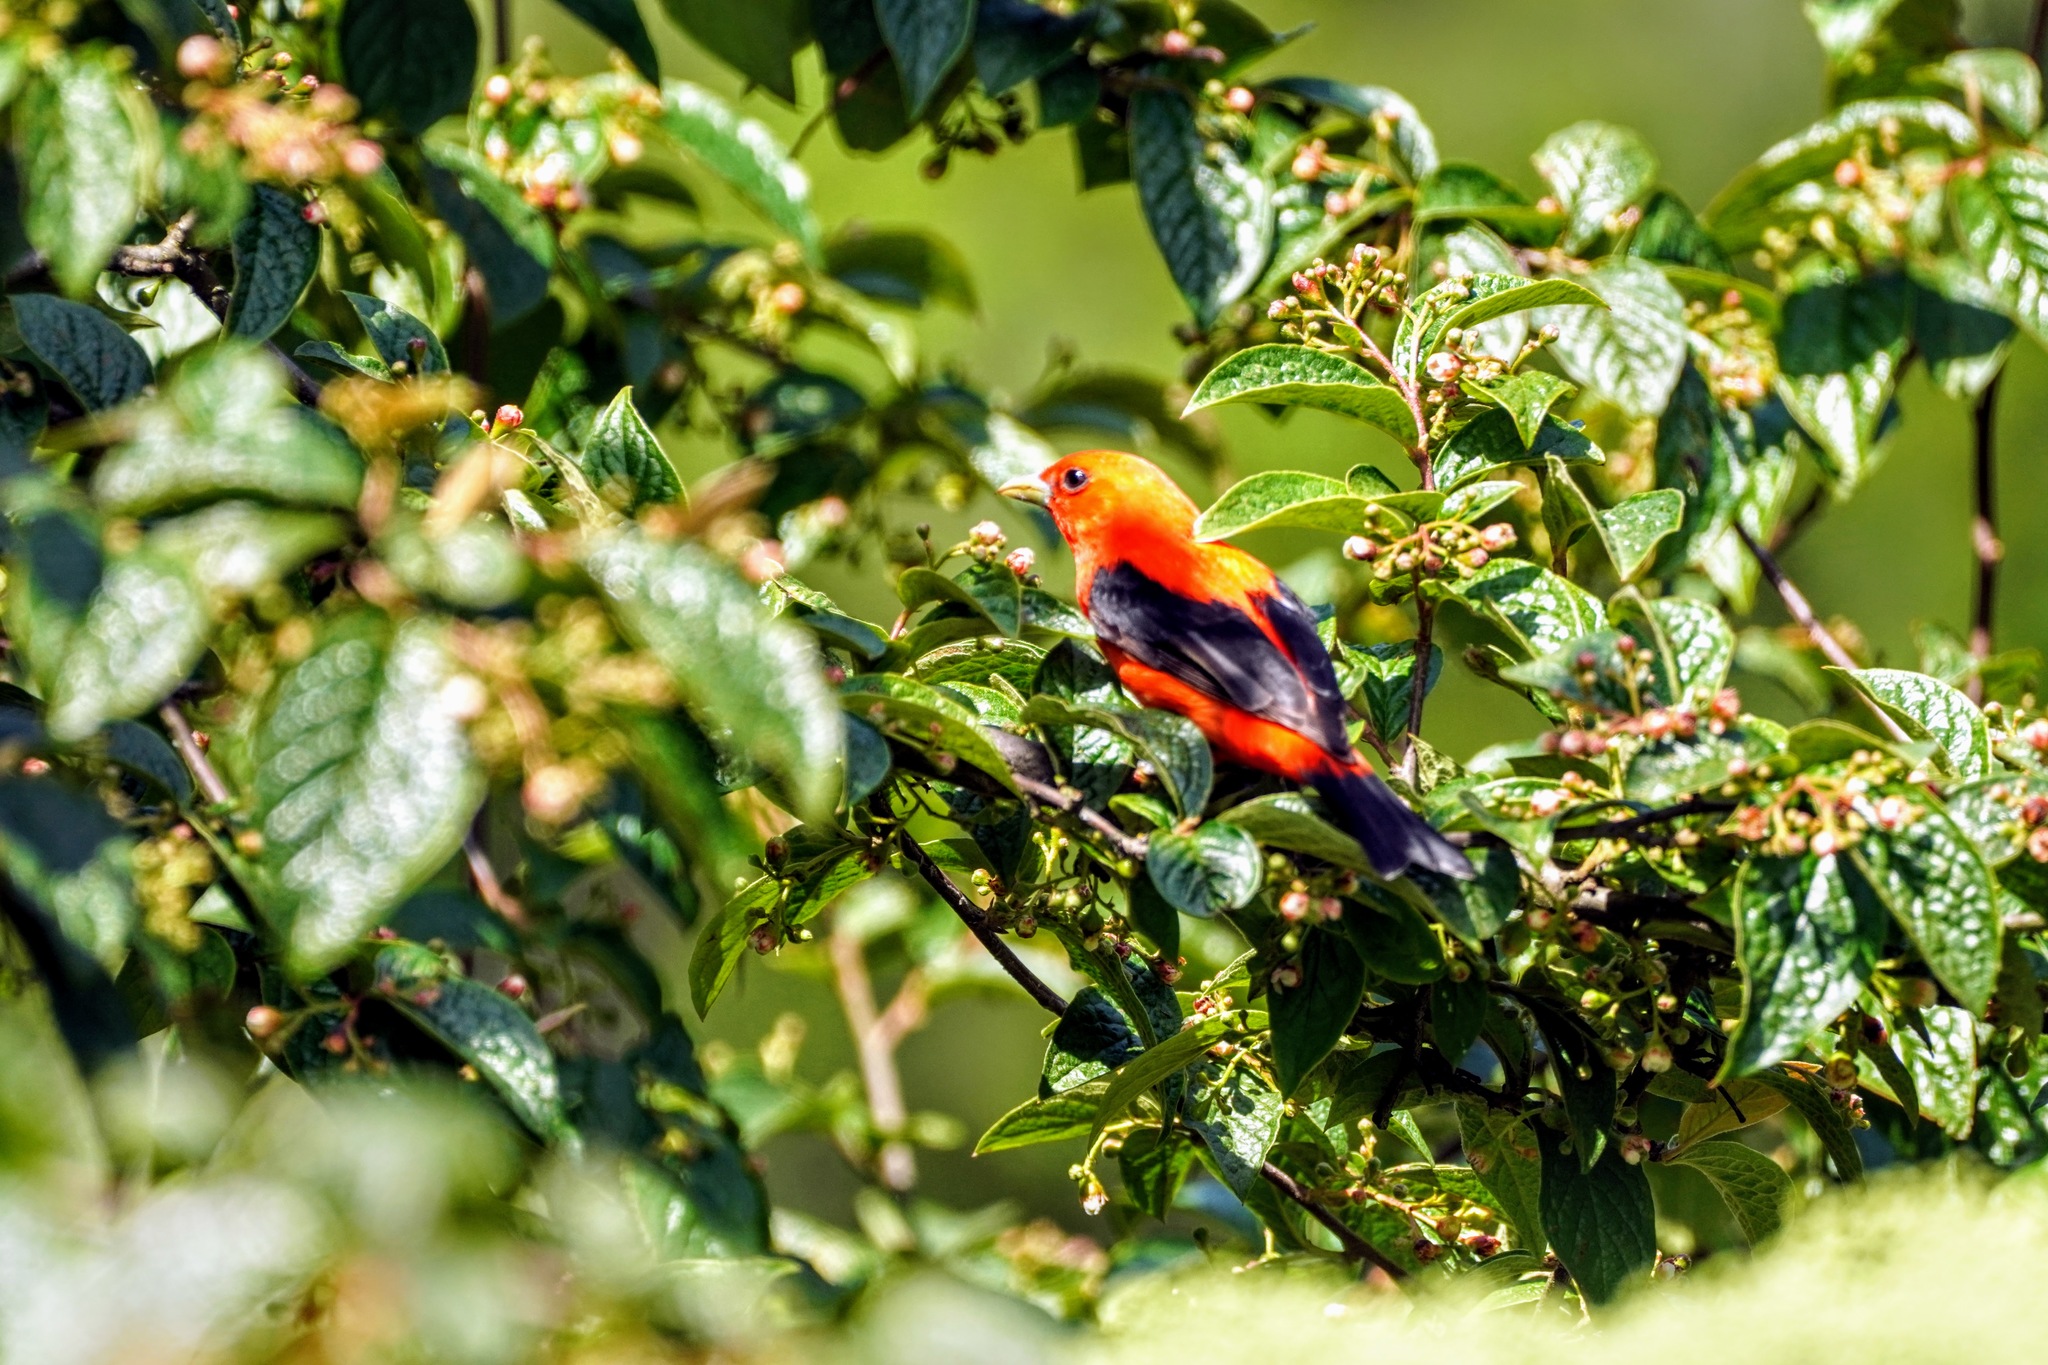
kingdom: Animalia
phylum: Chordata
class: Aves
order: Passeriformes
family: Cardinalidae
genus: Piranga
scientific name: Piranga olivacea
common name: Scarlet tanager
